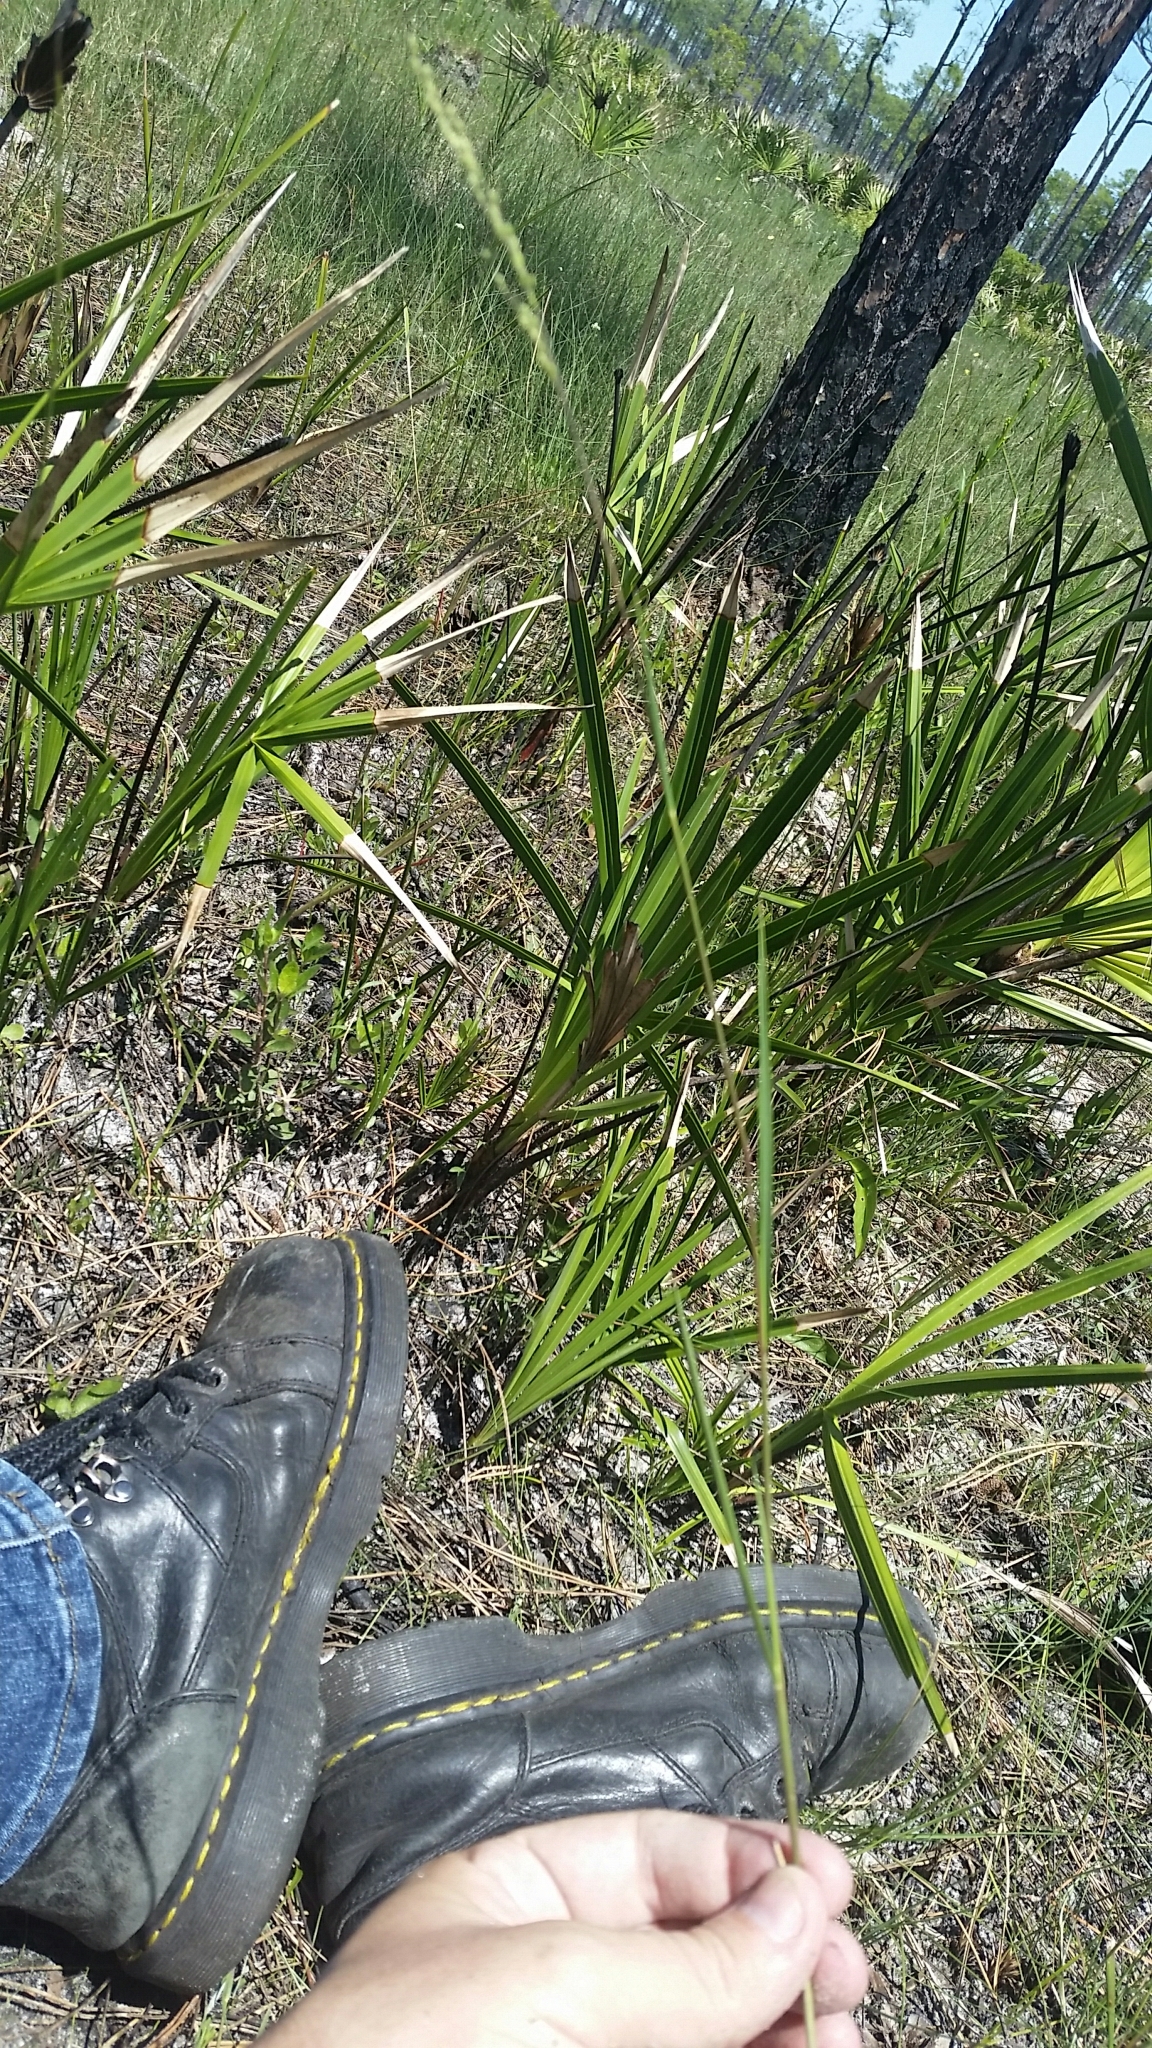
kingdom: Plantae
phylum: Tracheophyta
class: Liliopsida
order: Poales
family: Poaceae
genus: Dichanthelium
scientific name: Dichanthelium neuranthum
